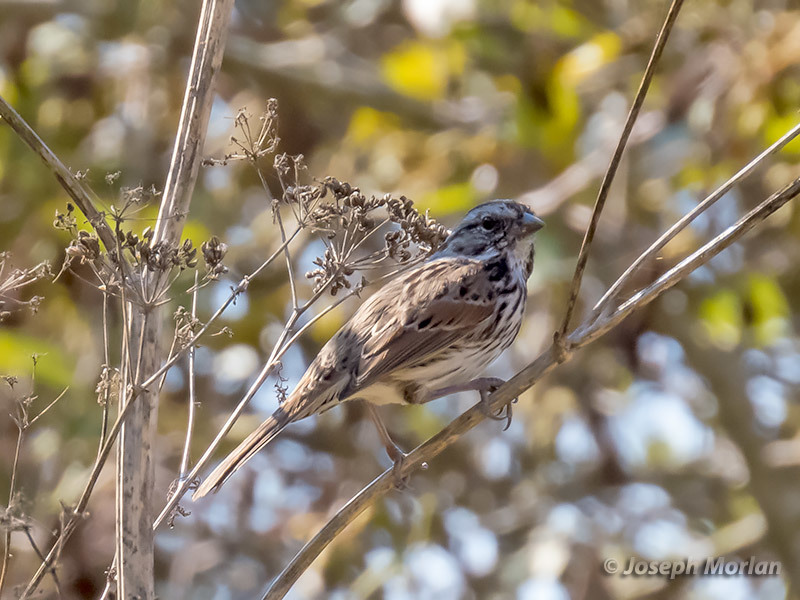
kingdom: Animalia
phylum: Chordata
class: Aves
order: Passeriformes
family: Passerellidae
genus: Melospiza
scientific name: Melospiza melodia
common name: Song sparrow
